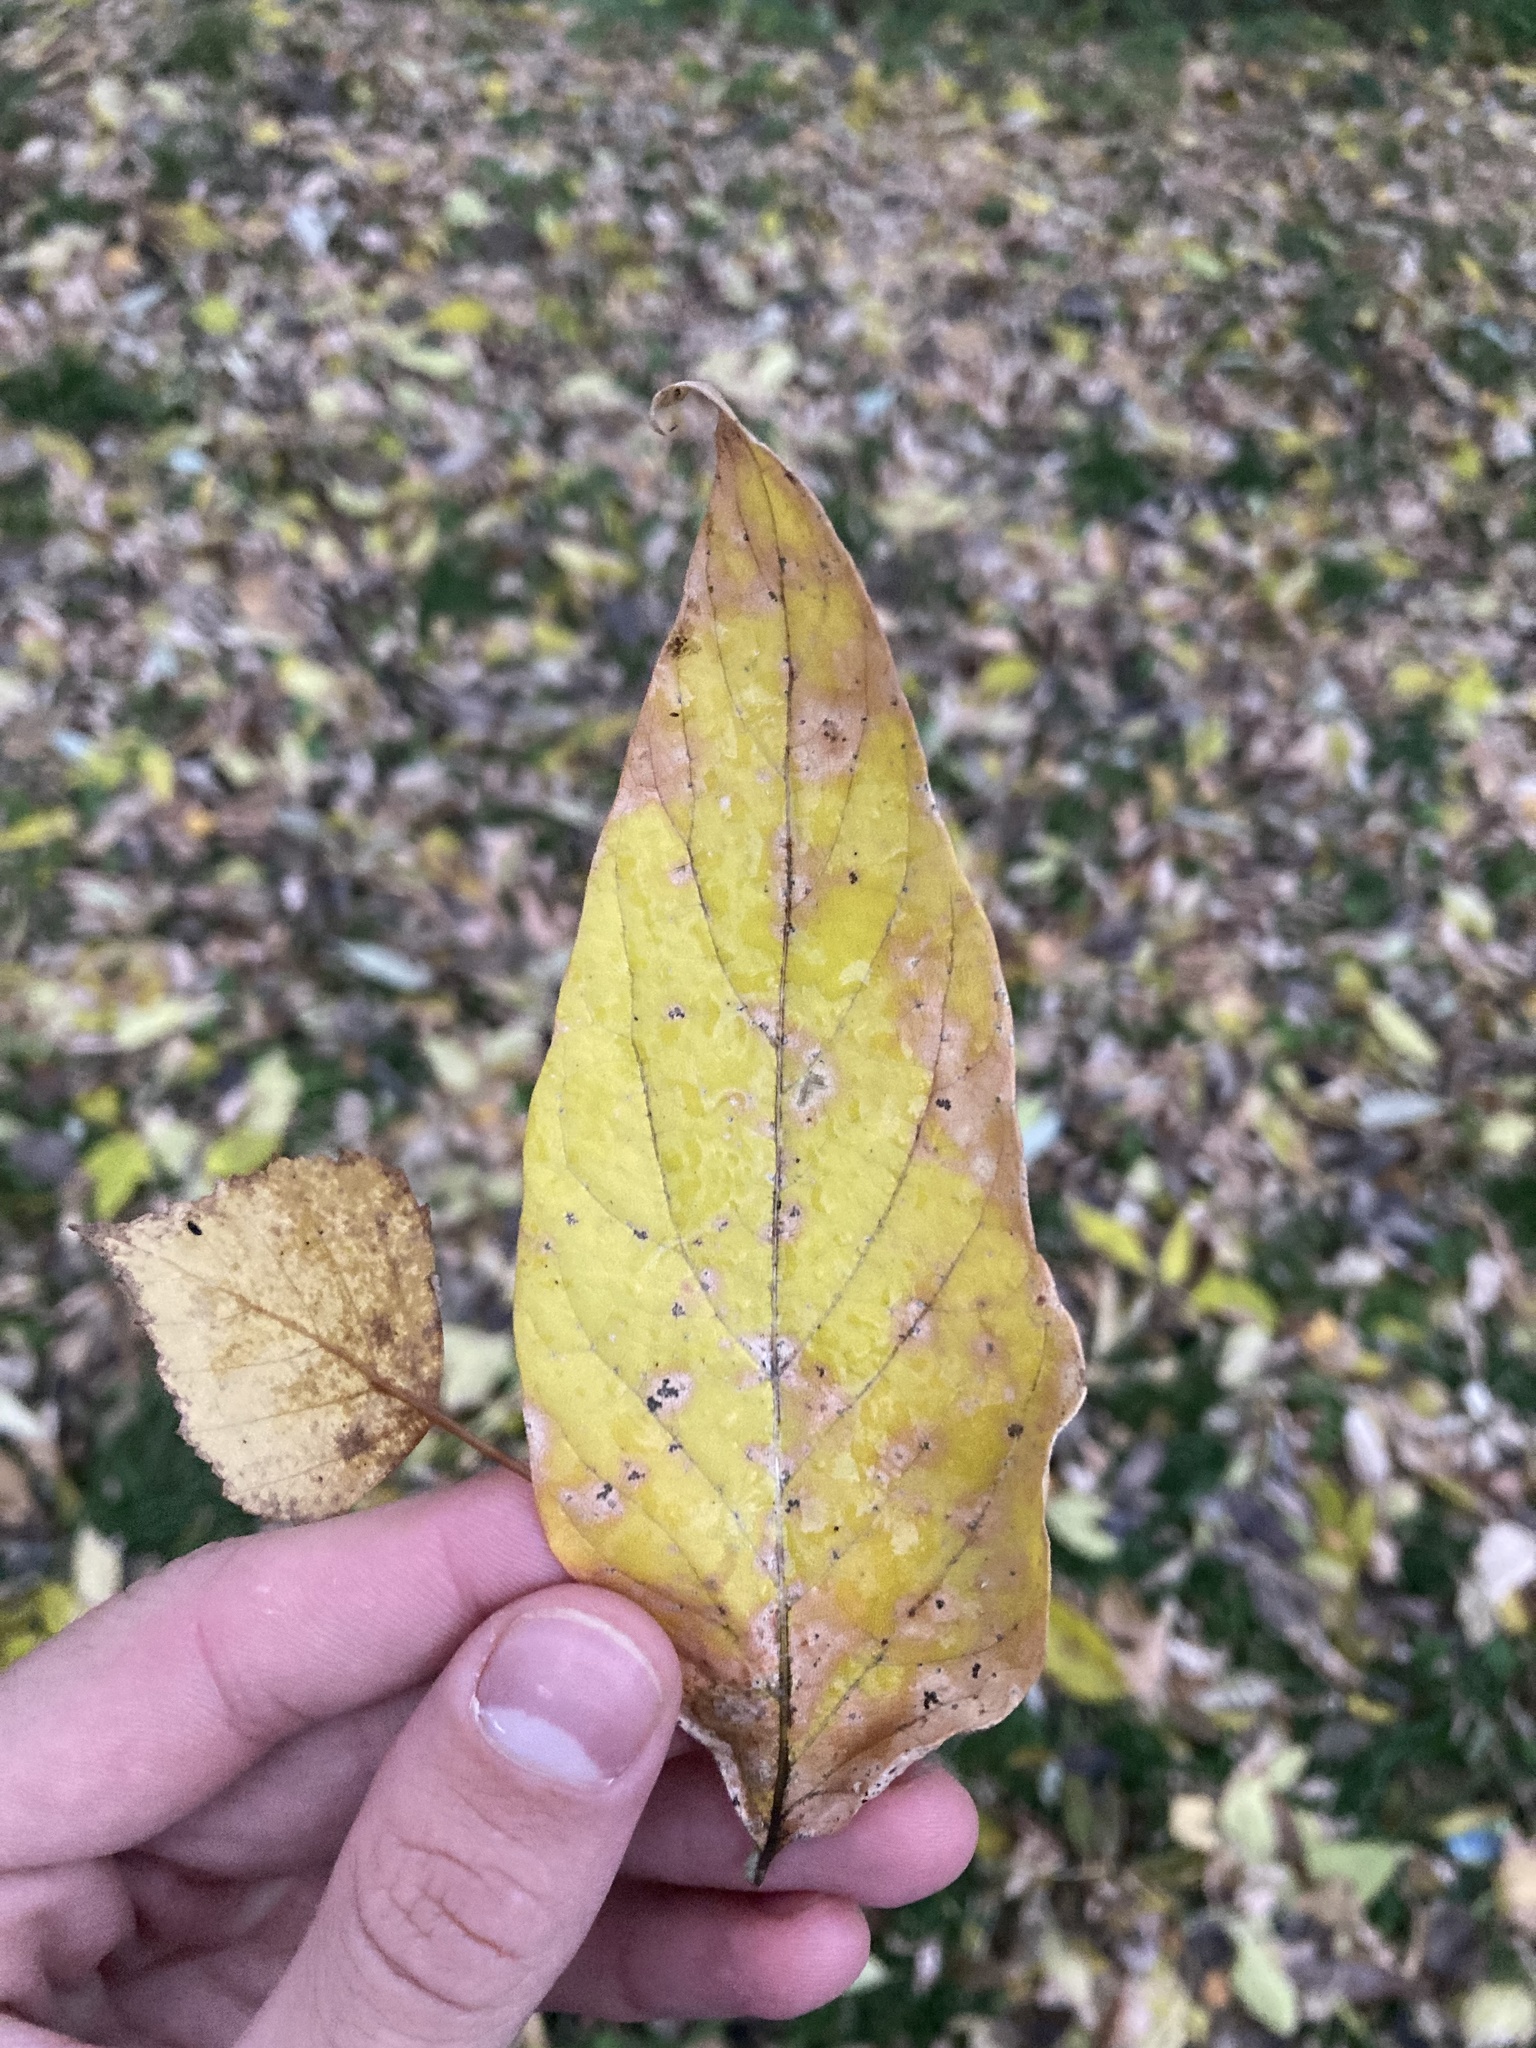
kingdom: Plantae
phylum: Tracheophyta
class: Magnoliopsida
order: Sapindales
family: Sapindaceae
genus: Acer
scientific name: Acer negundo
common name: Ashleaf maple
